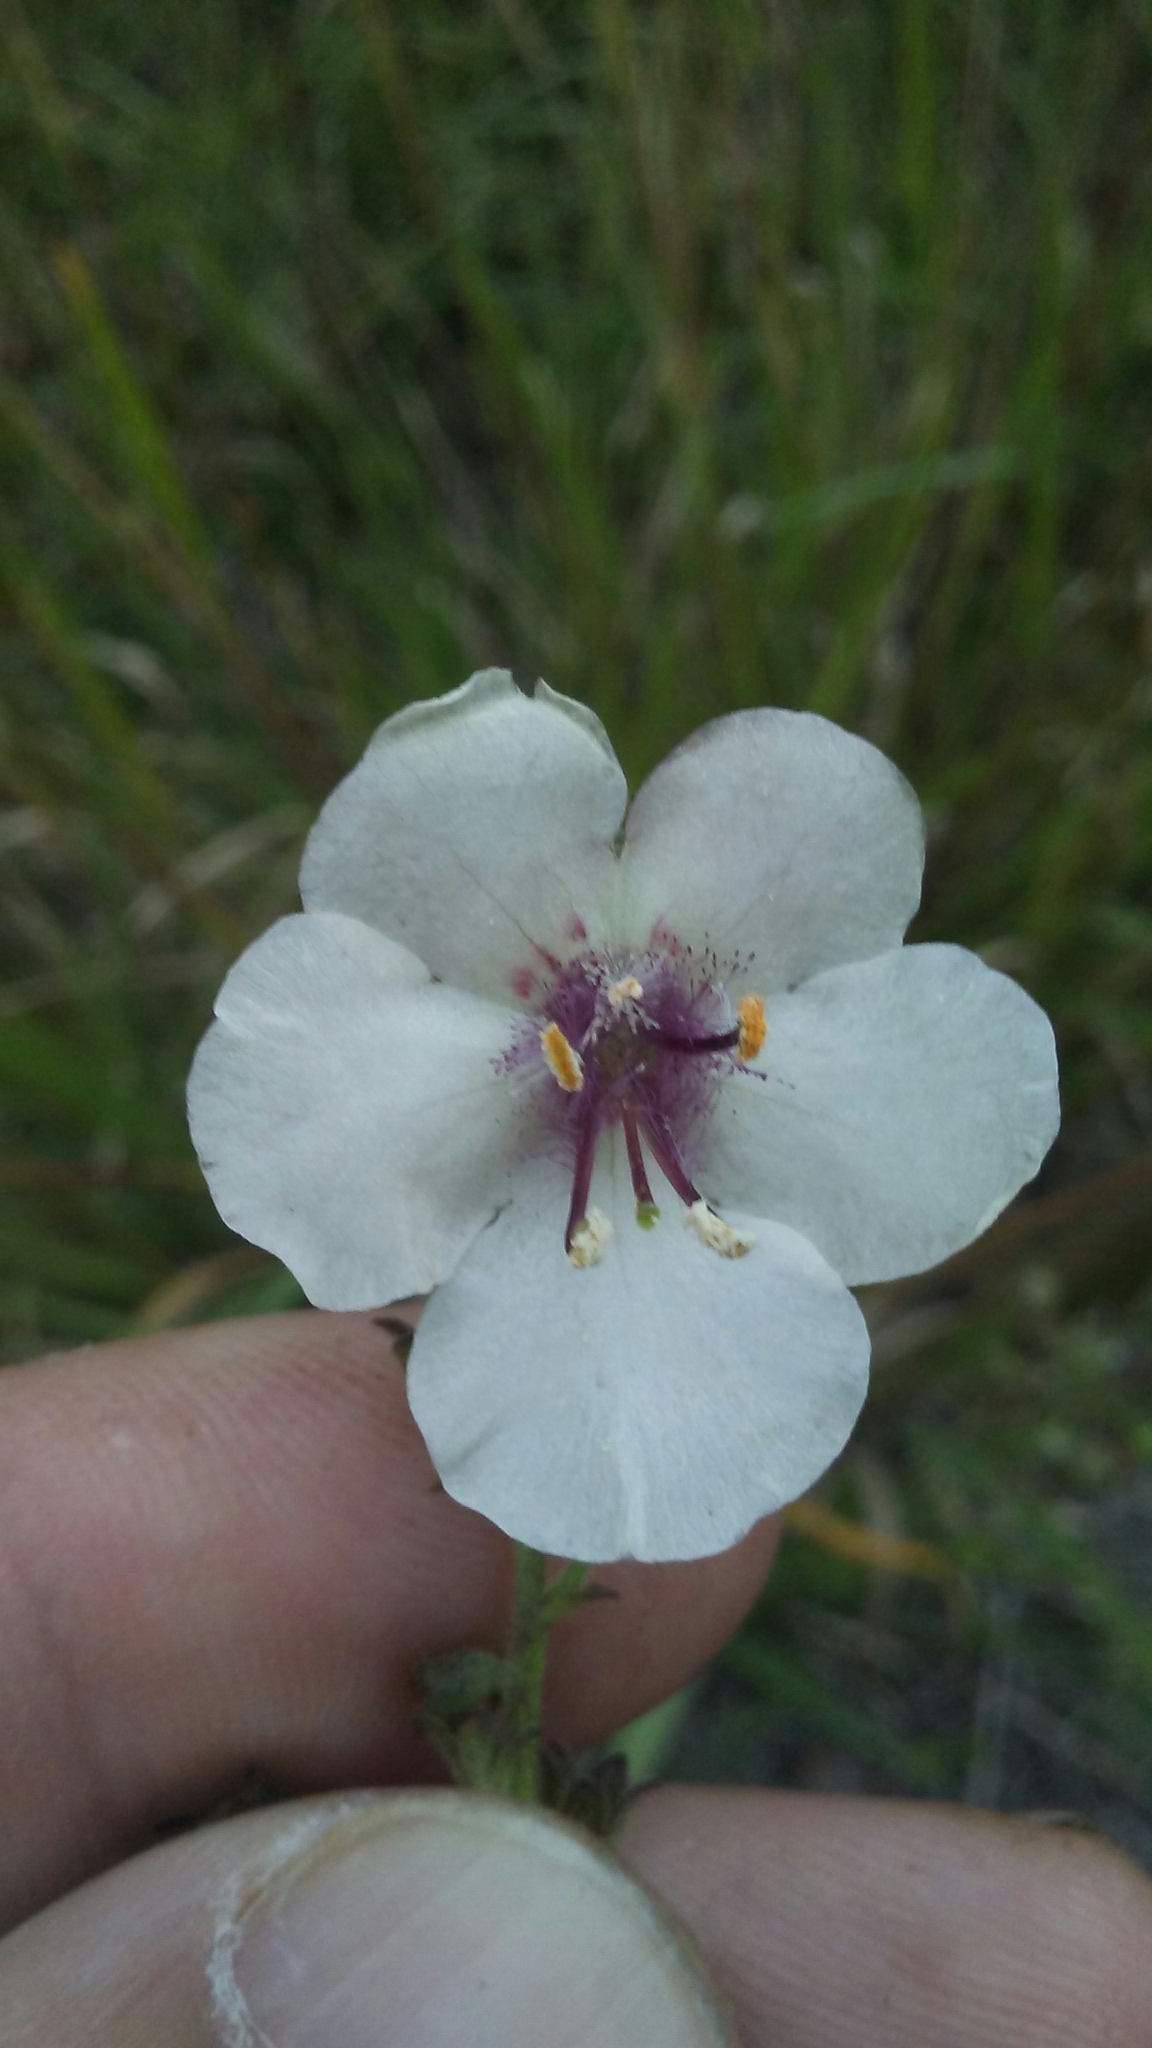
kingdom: Plantae
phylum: Tracheophyta
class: Magnoliopsida
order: Lamiales
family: Scrophulariaceae
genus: Verbascum
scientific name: Verbascum blattaria
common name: Moth mullein
